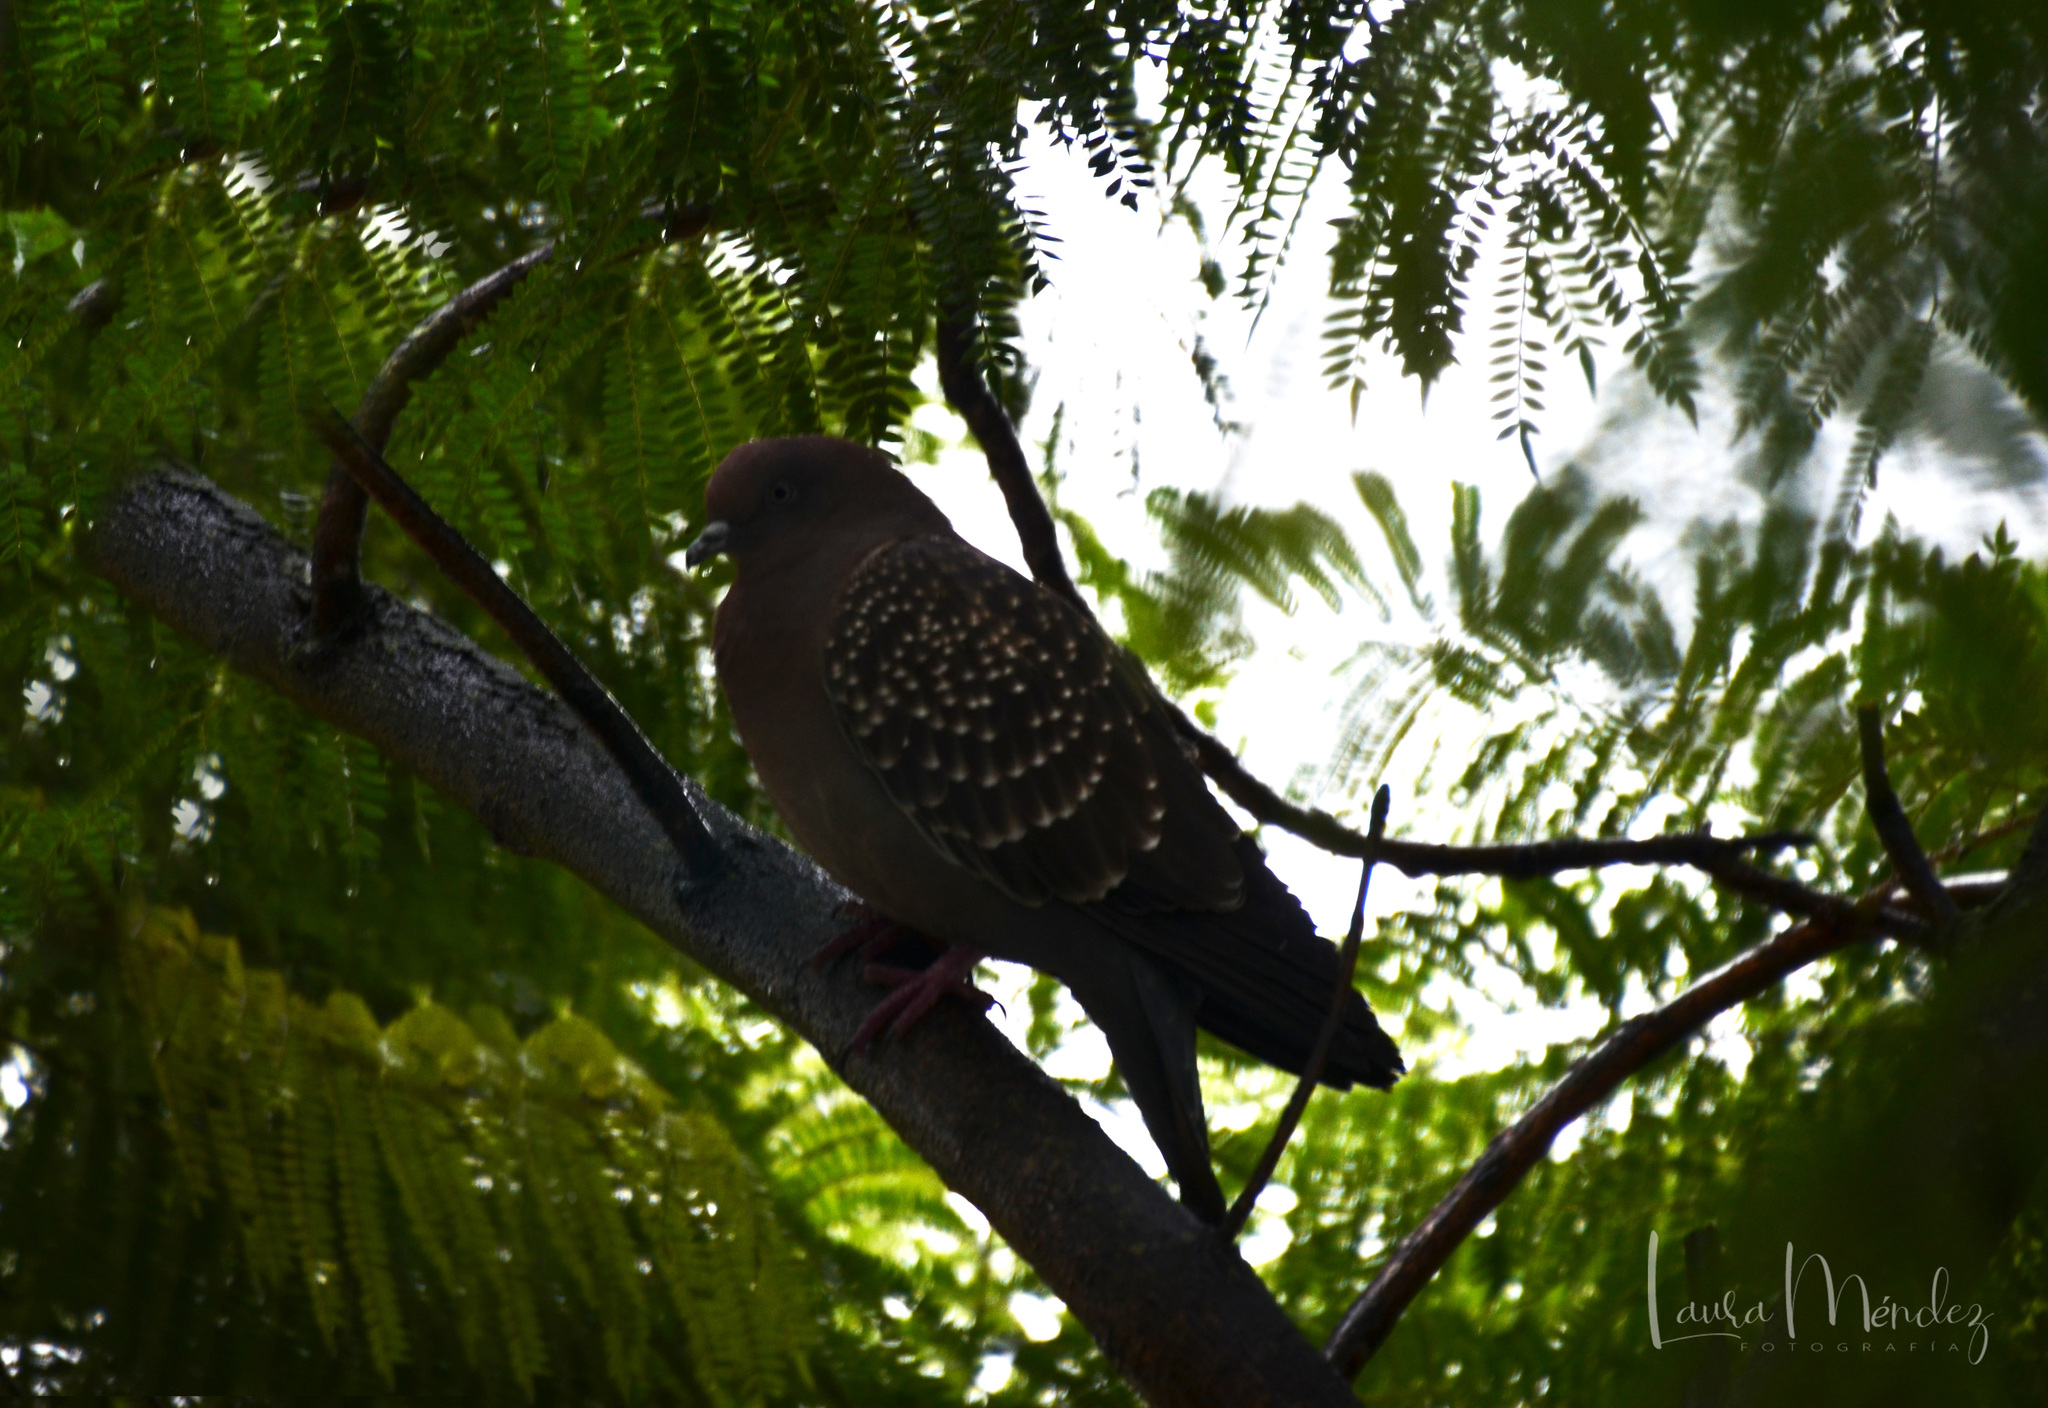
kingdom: Animalia
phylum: Chordata
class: Aves
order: Columbiformes
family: Columbidae
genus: Patagioenas
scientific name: Patagioenas maculosa
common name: Spot-winged pigeon
